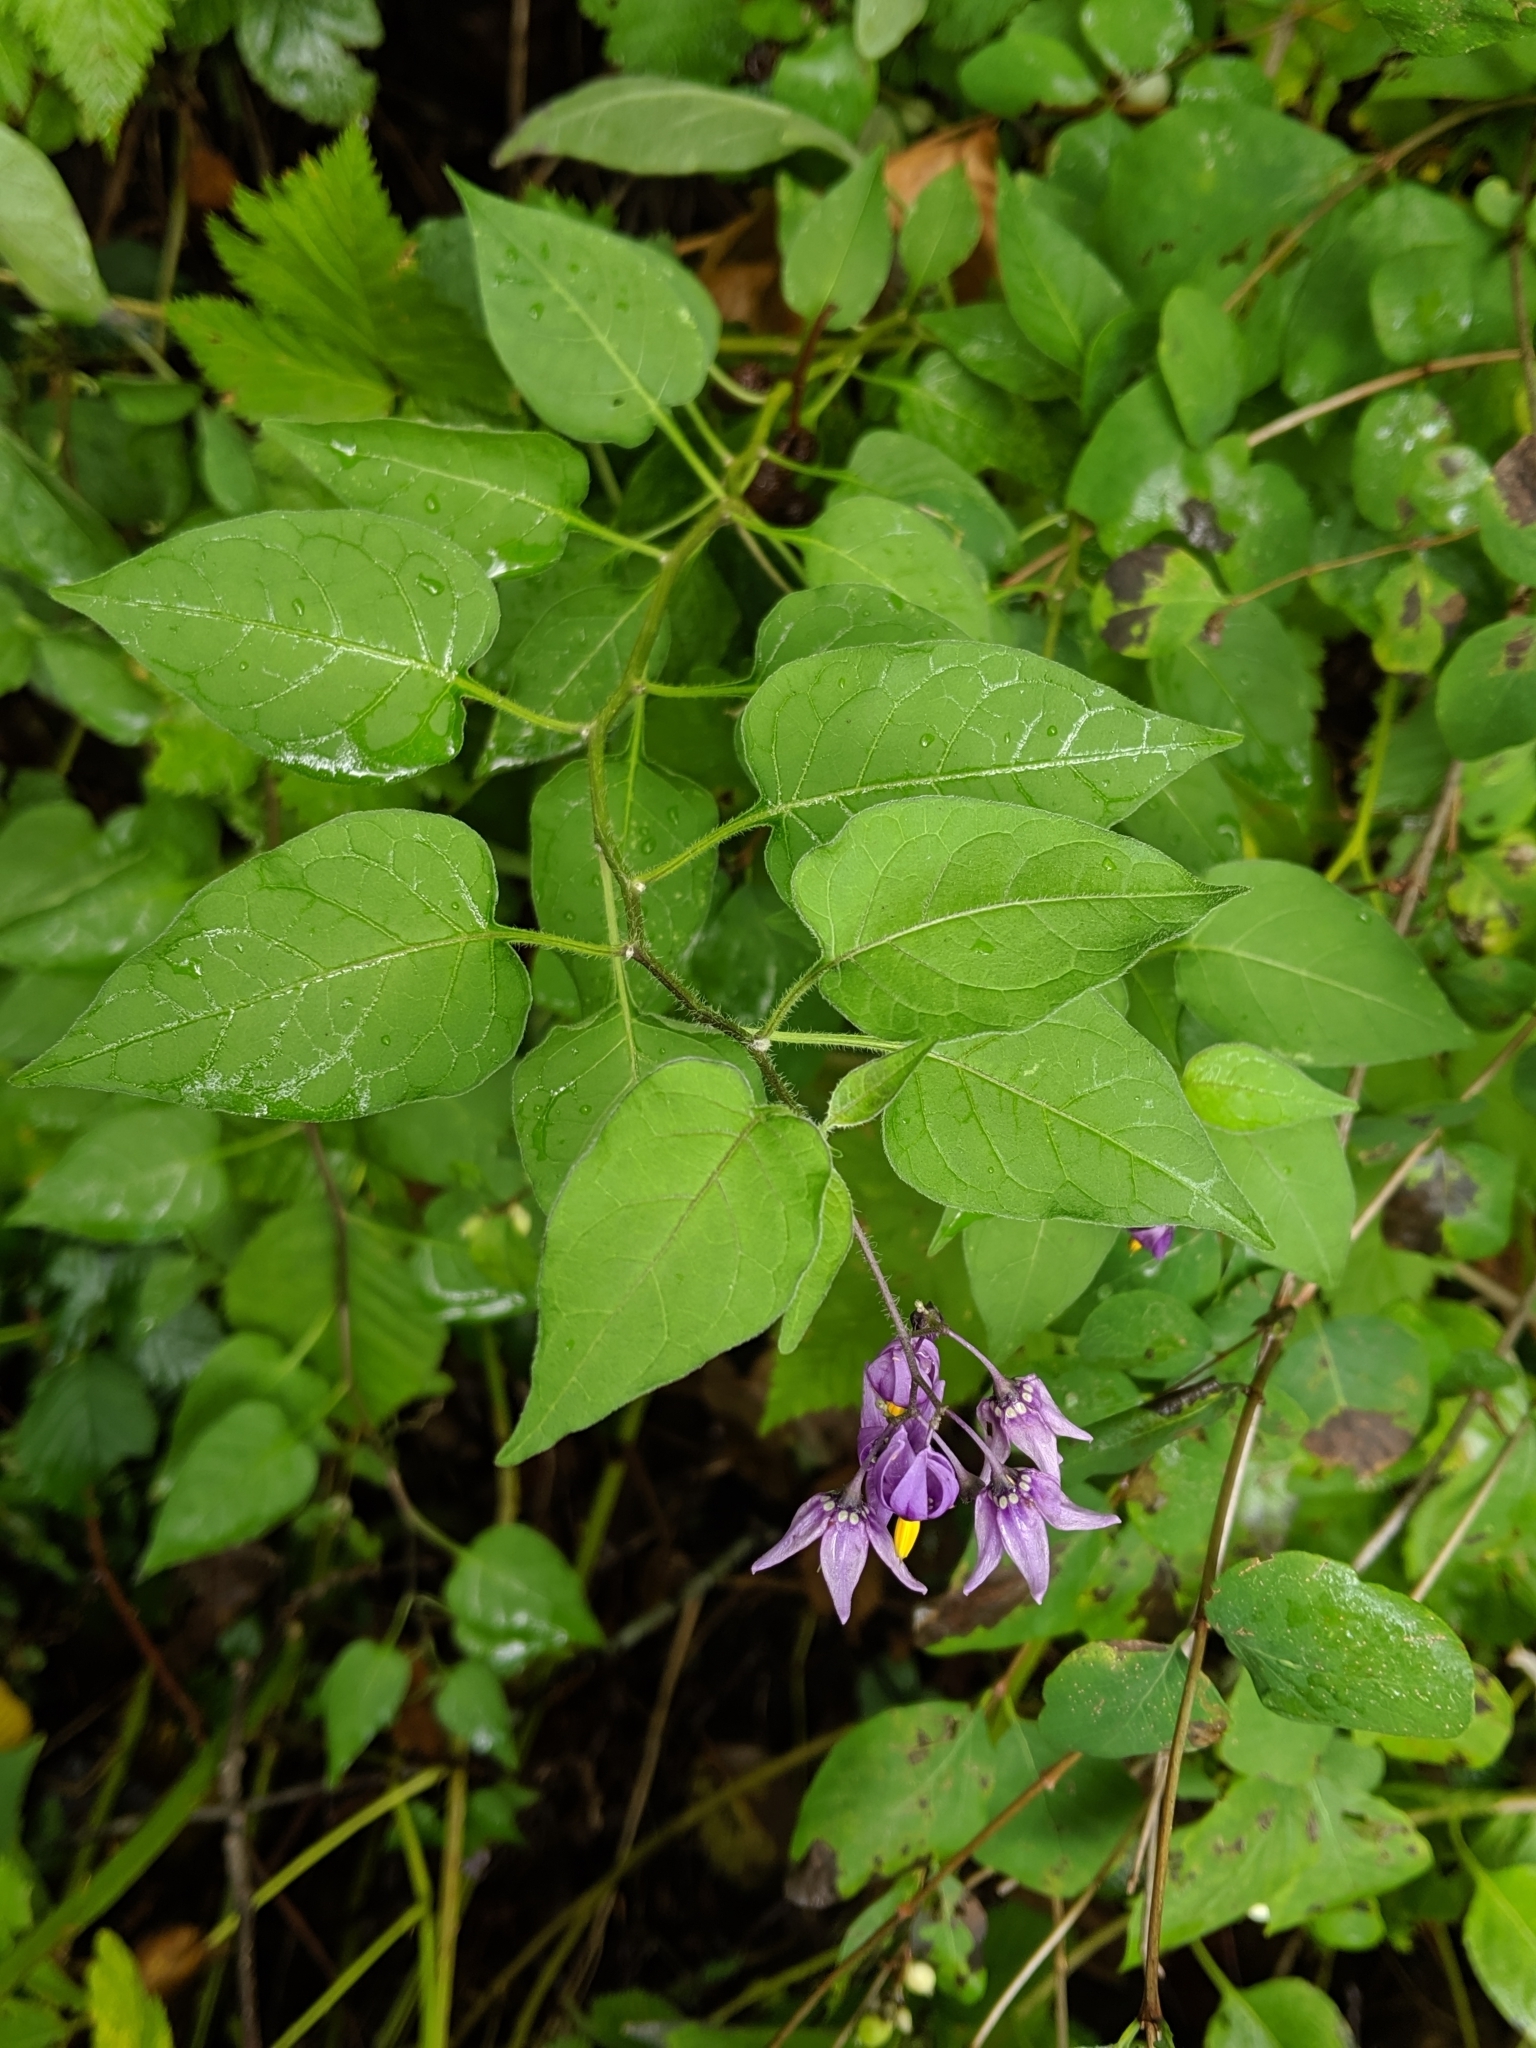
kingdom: Plantae
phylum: Tracheophyta
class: Magnoliopsida
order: Solanales
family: Solanaceae
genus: Solanum
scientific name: Solanum dulcamara
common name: Climbing nightshade
